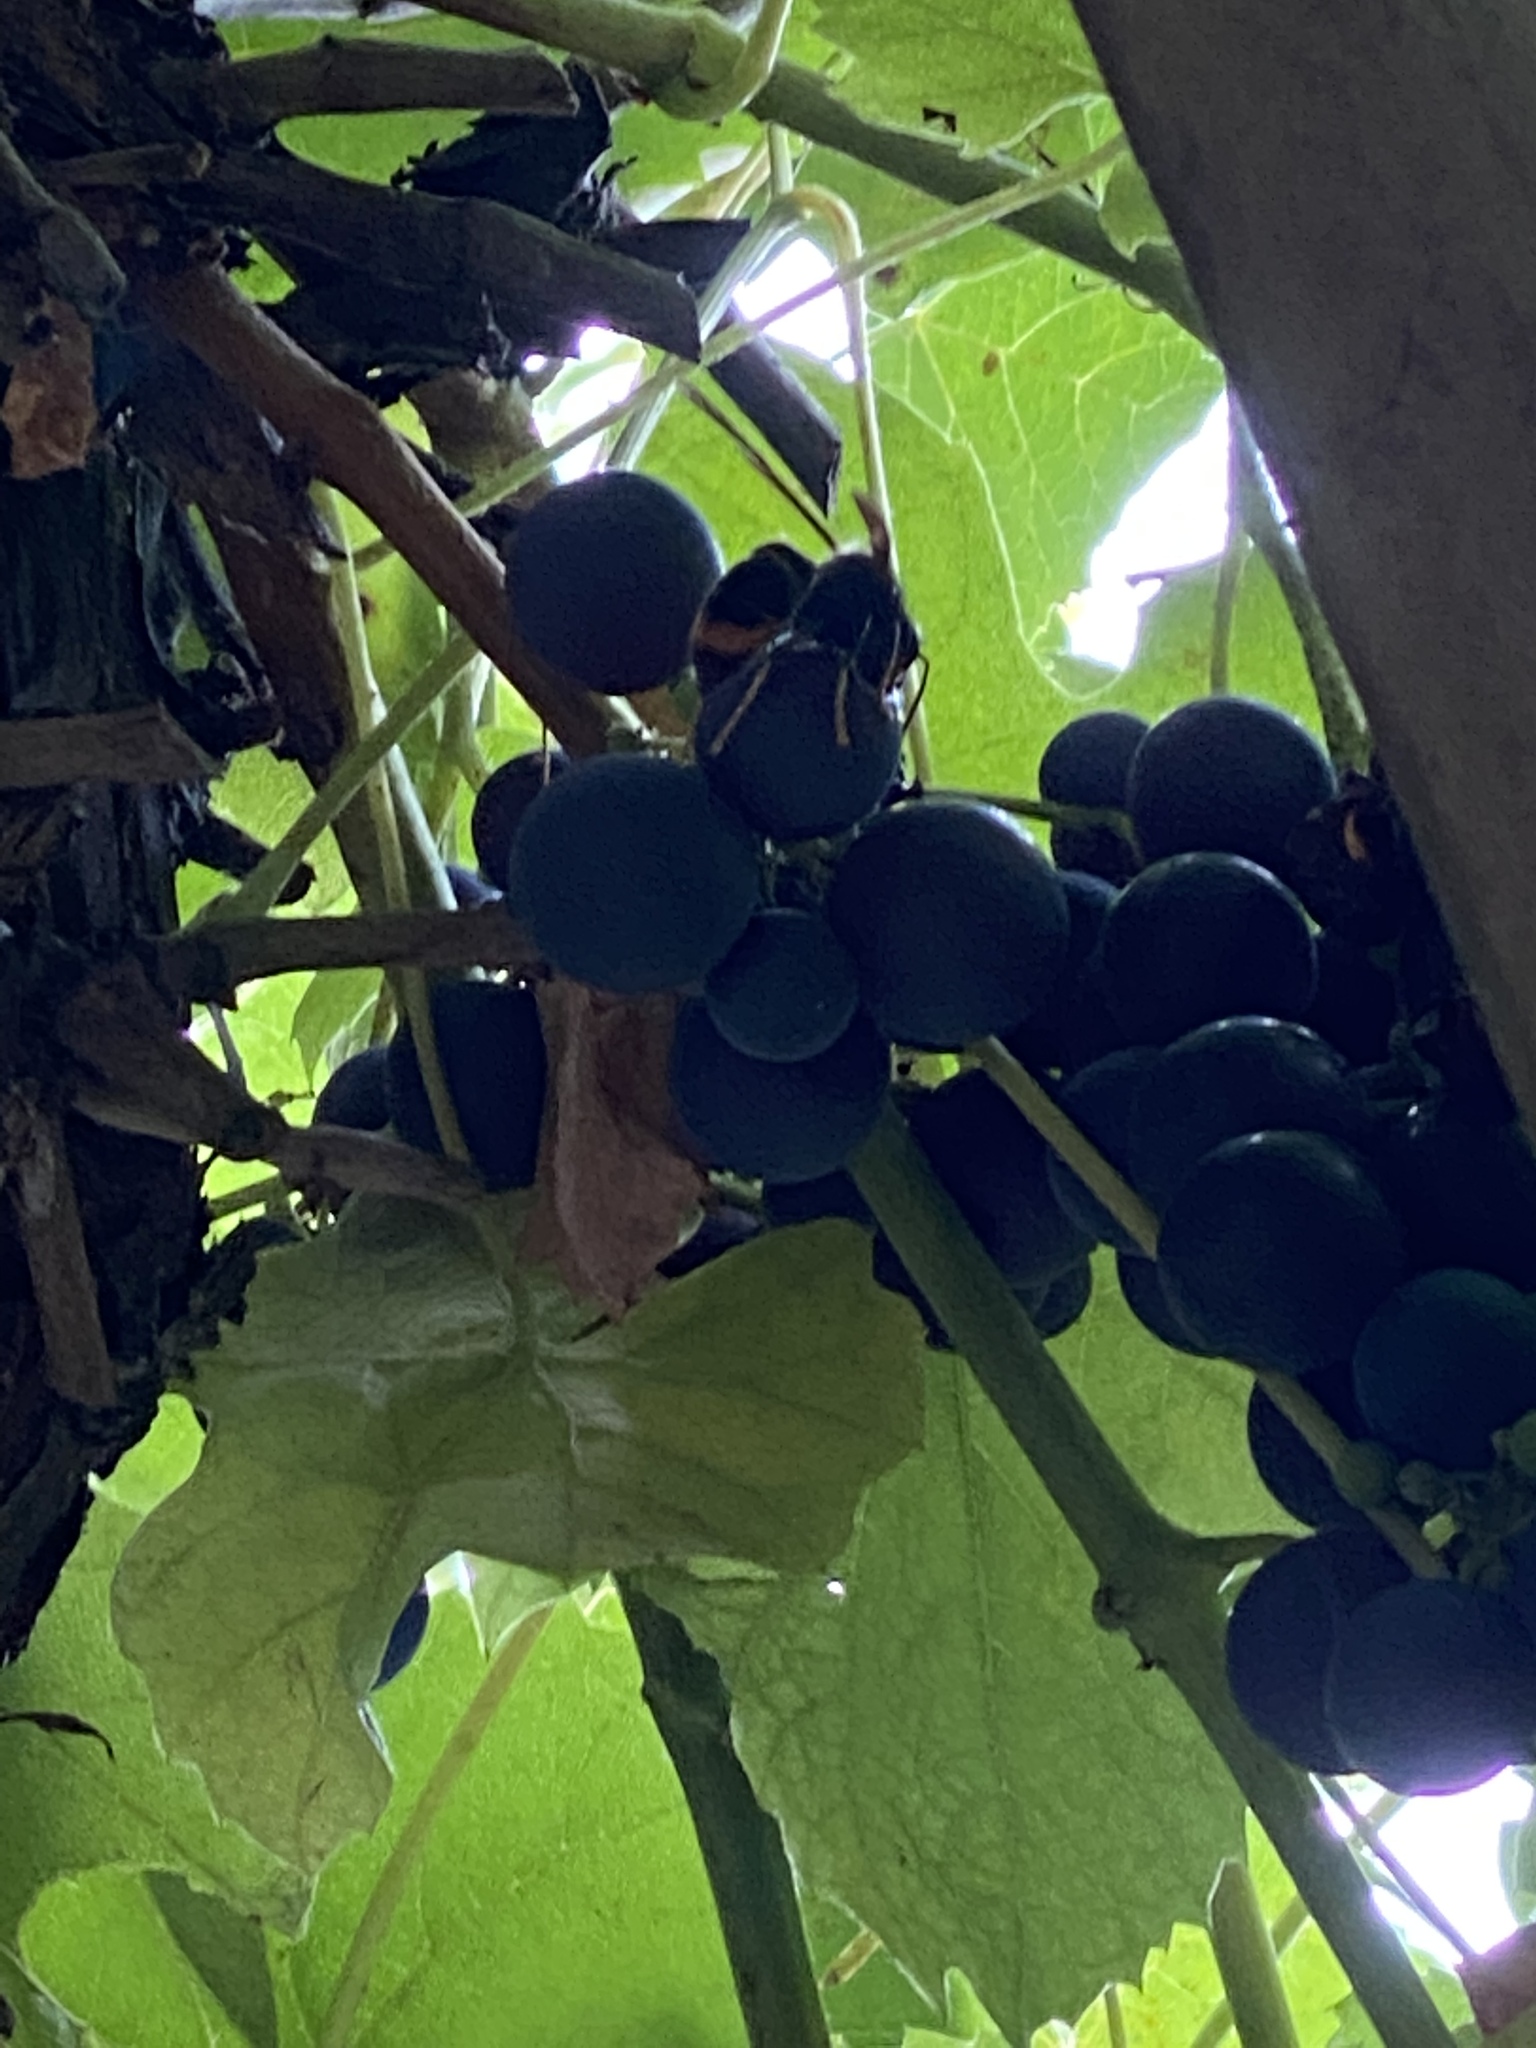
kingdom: Animalia
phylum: Arthropoda
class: Insecta
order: Hymenoptera
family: Vespidae
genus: Vespa
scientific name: Vespa velutina
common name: Asian hornet
